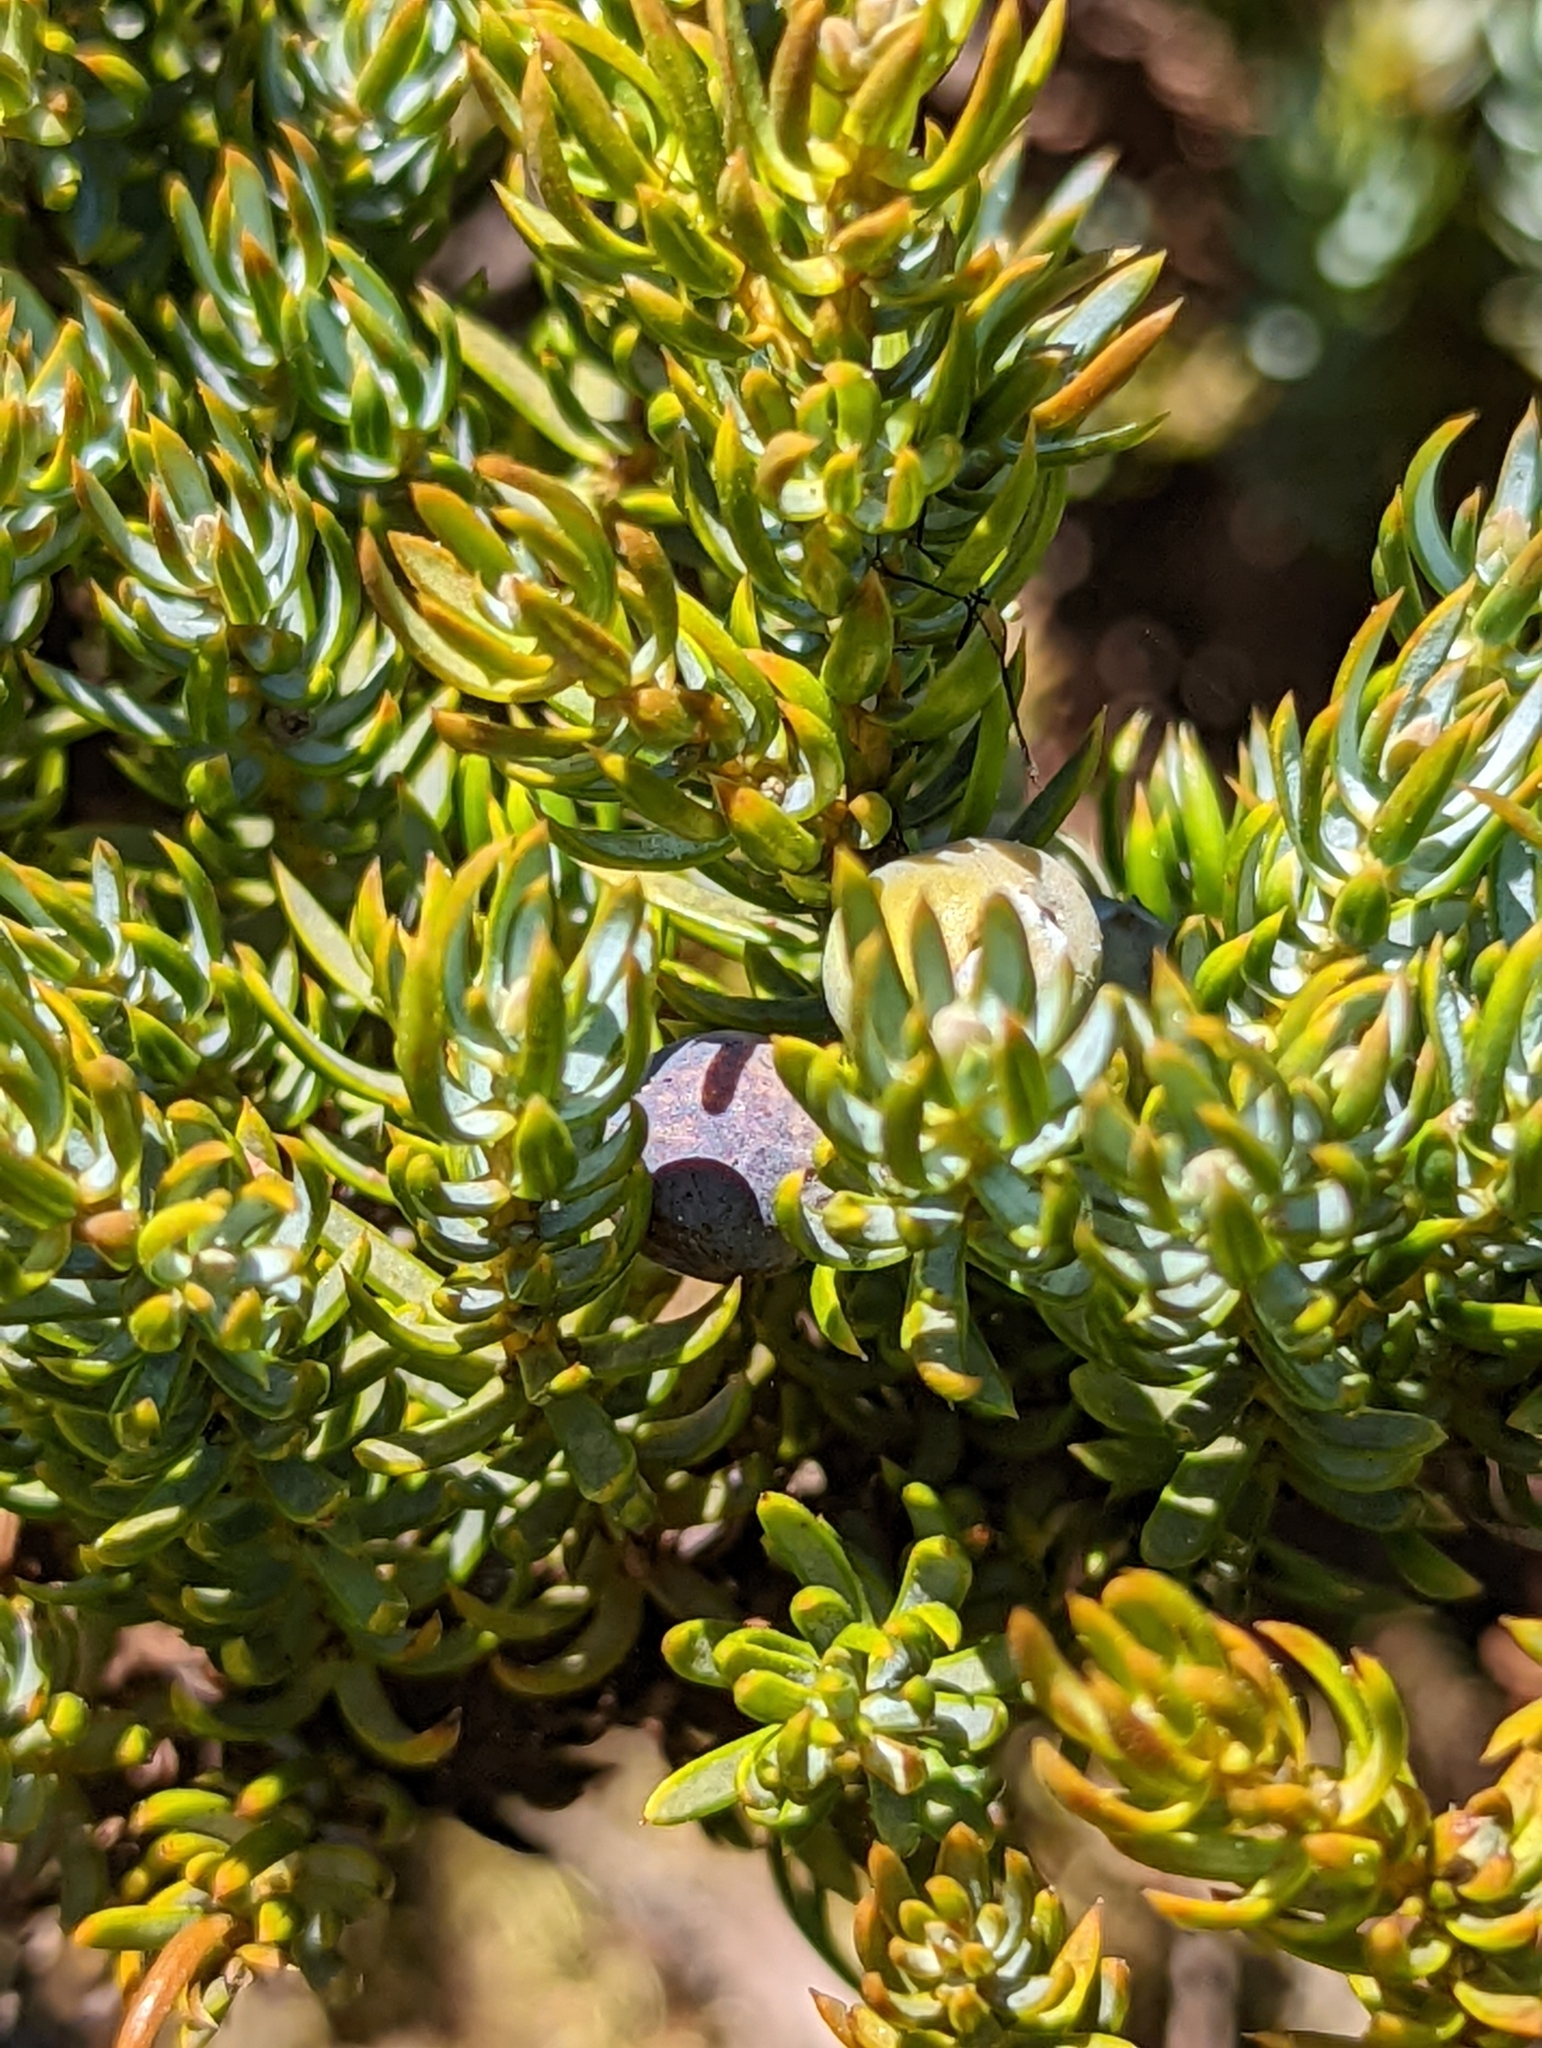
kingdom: Plantae
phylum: Tracheophyta
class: Pinopsida
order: Pinales
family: Cupressaceae
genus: Juniperus
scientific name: Juniperus communis
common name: Common juniper
